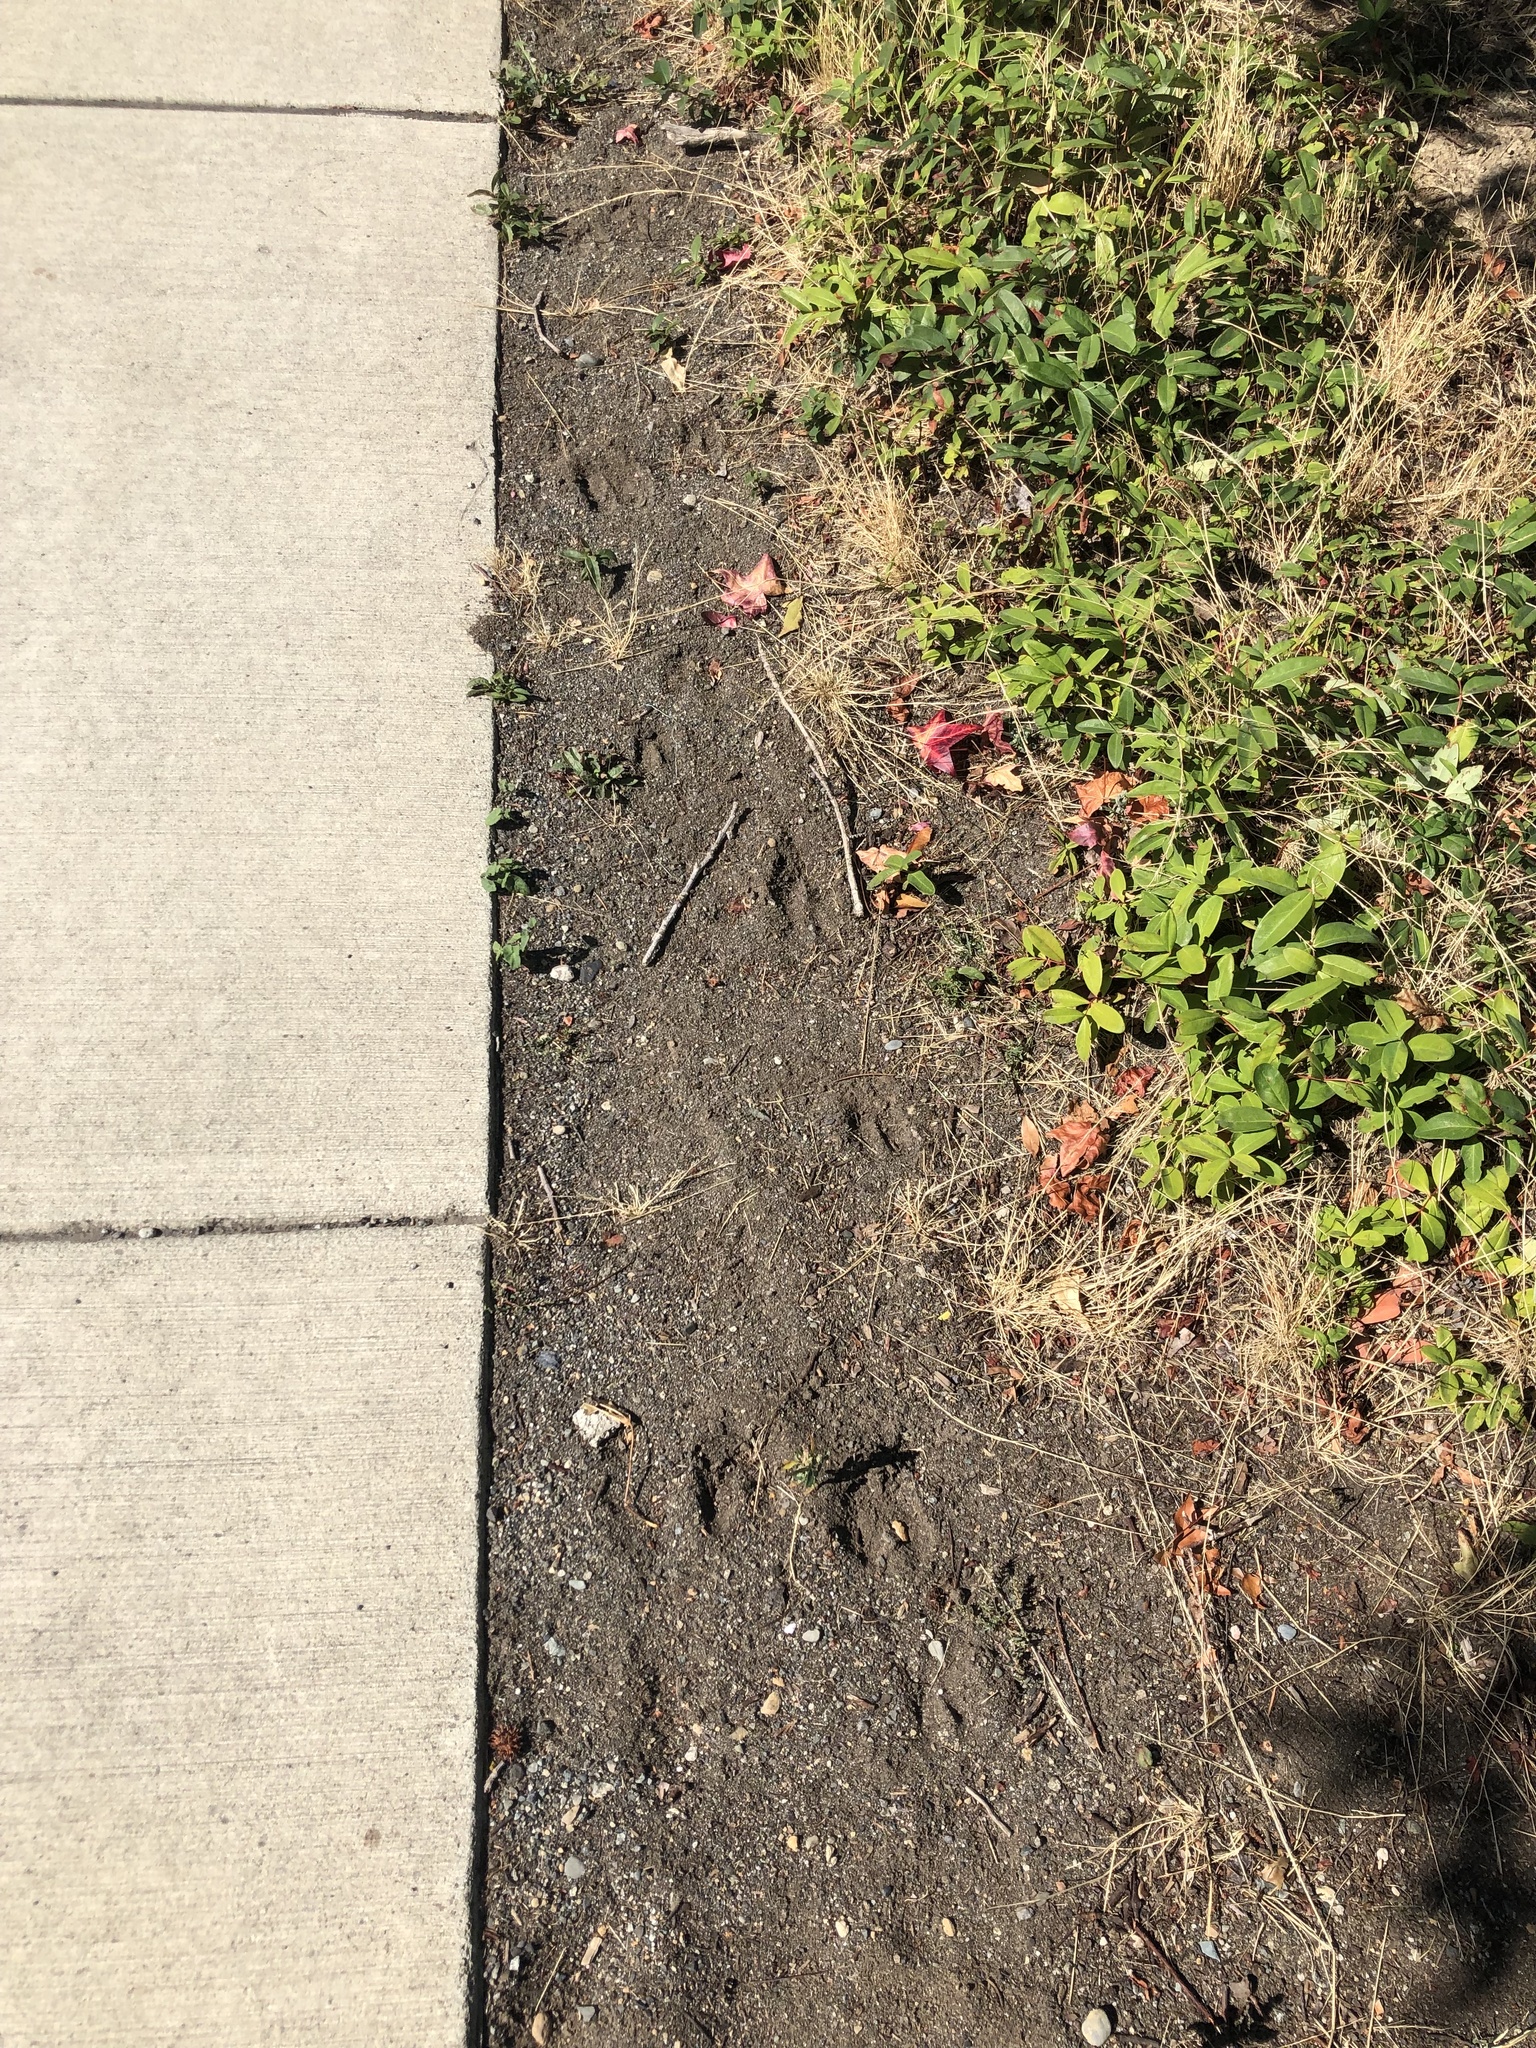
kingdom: Animalia
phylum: Chordata
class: Mammalia
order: Artiodactyla
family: Cervidae
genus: Odocoileus
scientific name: Odocoileus hemionus
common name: Mule deer
